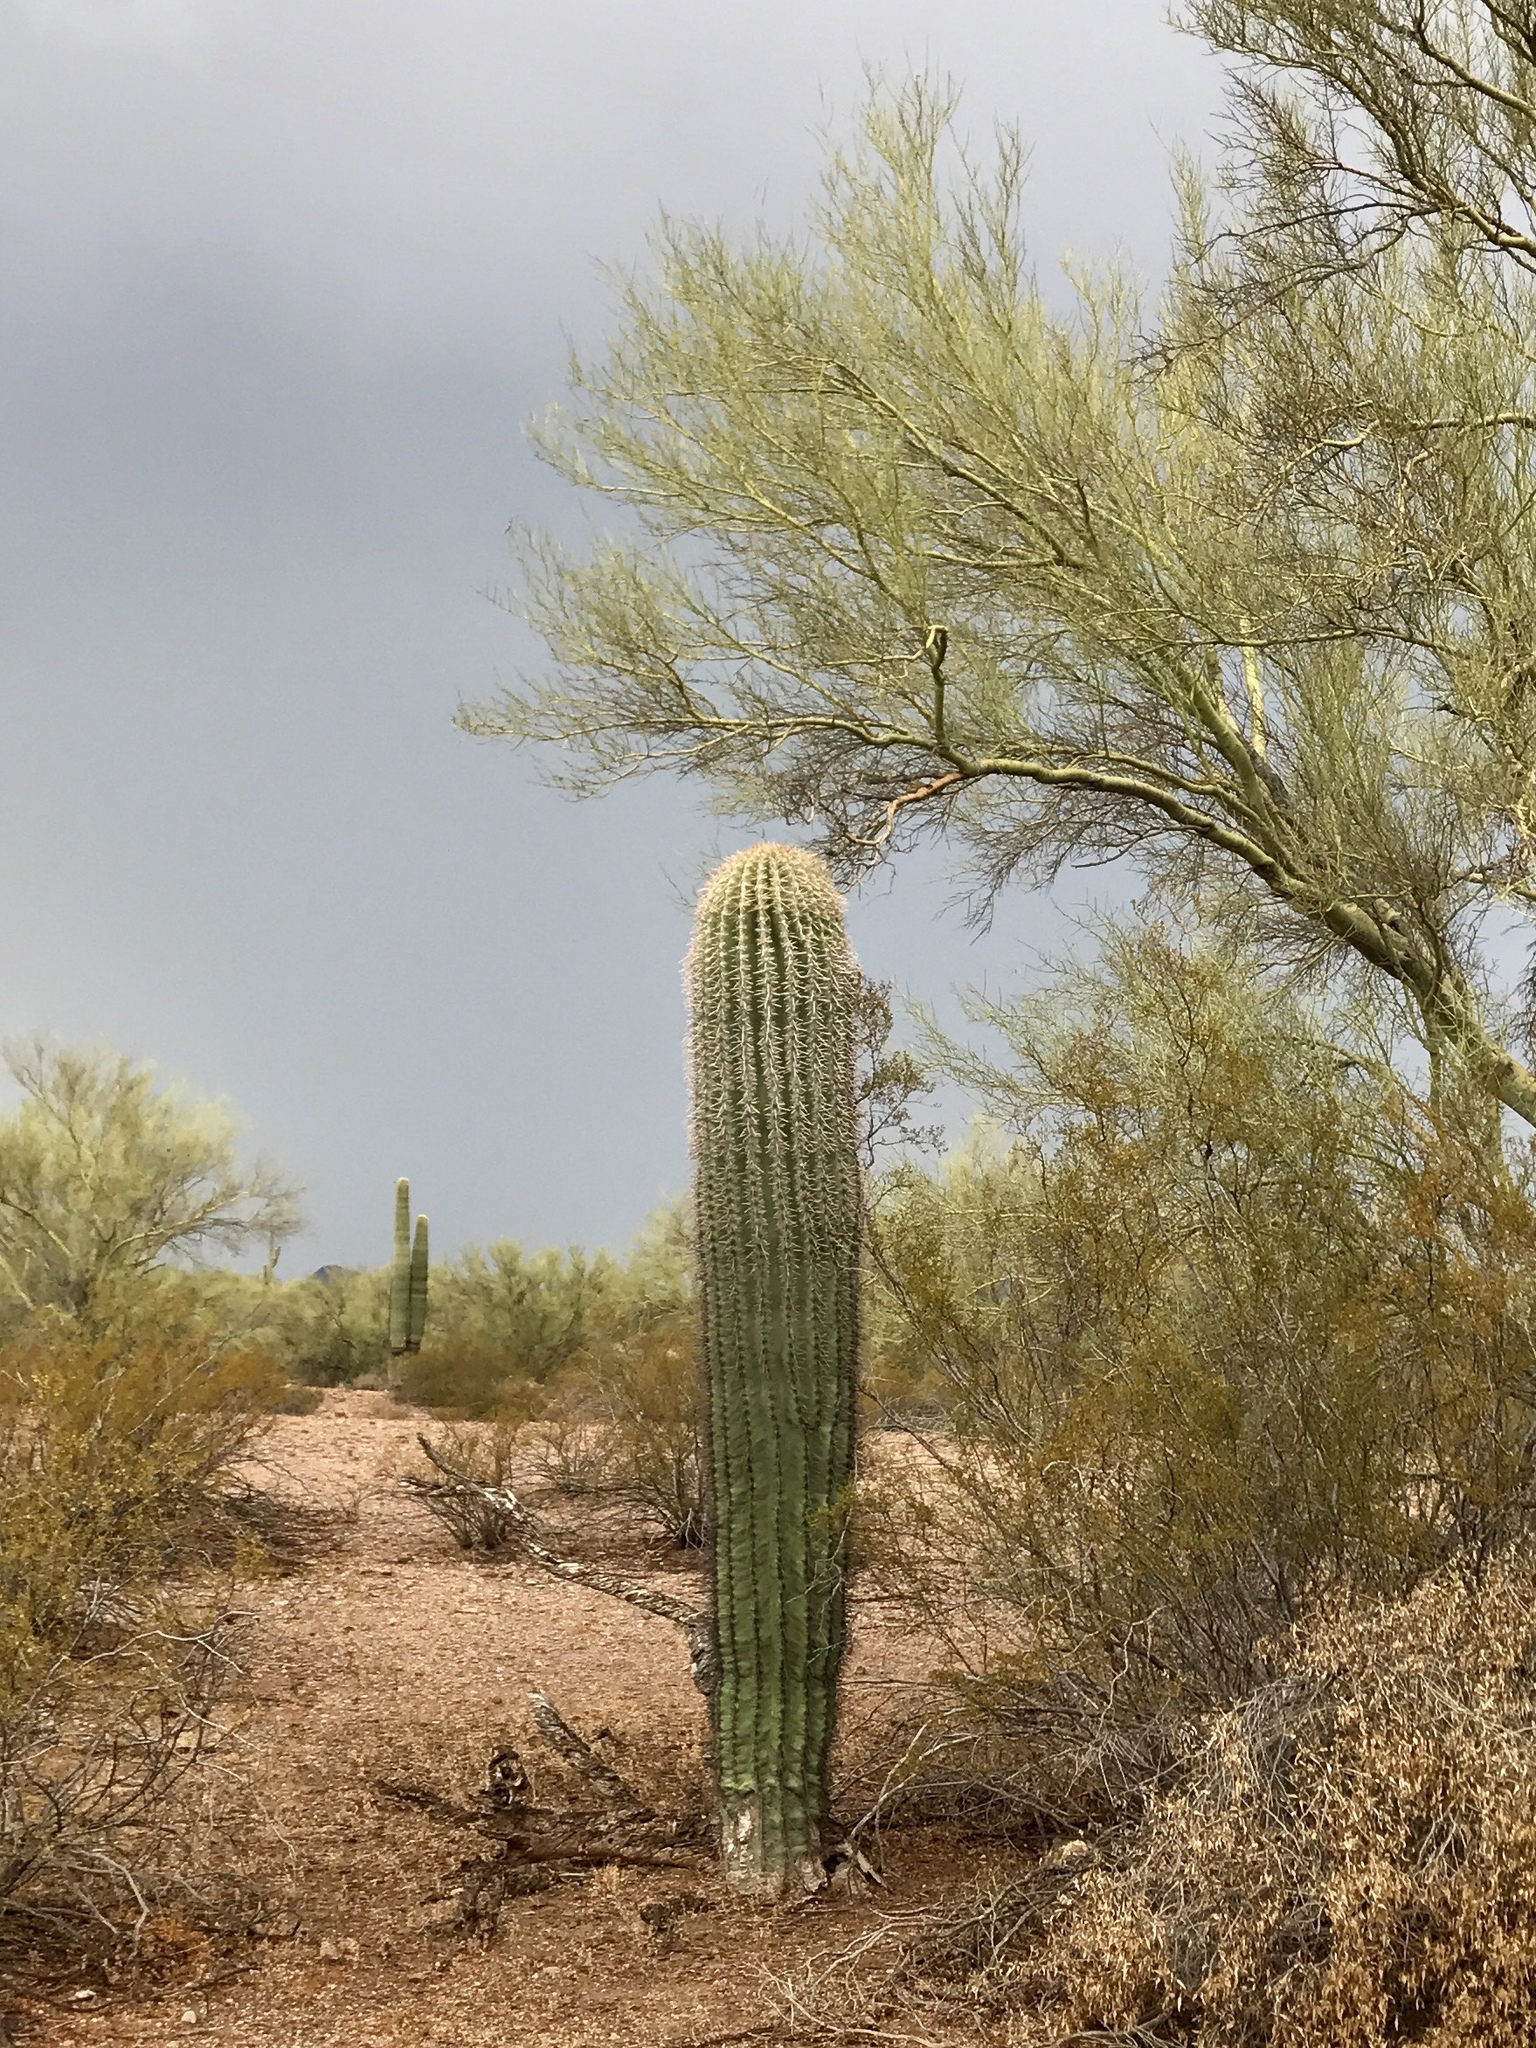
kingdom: Plantae
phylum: Tracheophyta
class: Magnoliopsida
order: Caryophyllales
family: Cactaceae
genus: Carnegiea
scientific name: Carnegiea gigantea
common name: Saguaro
